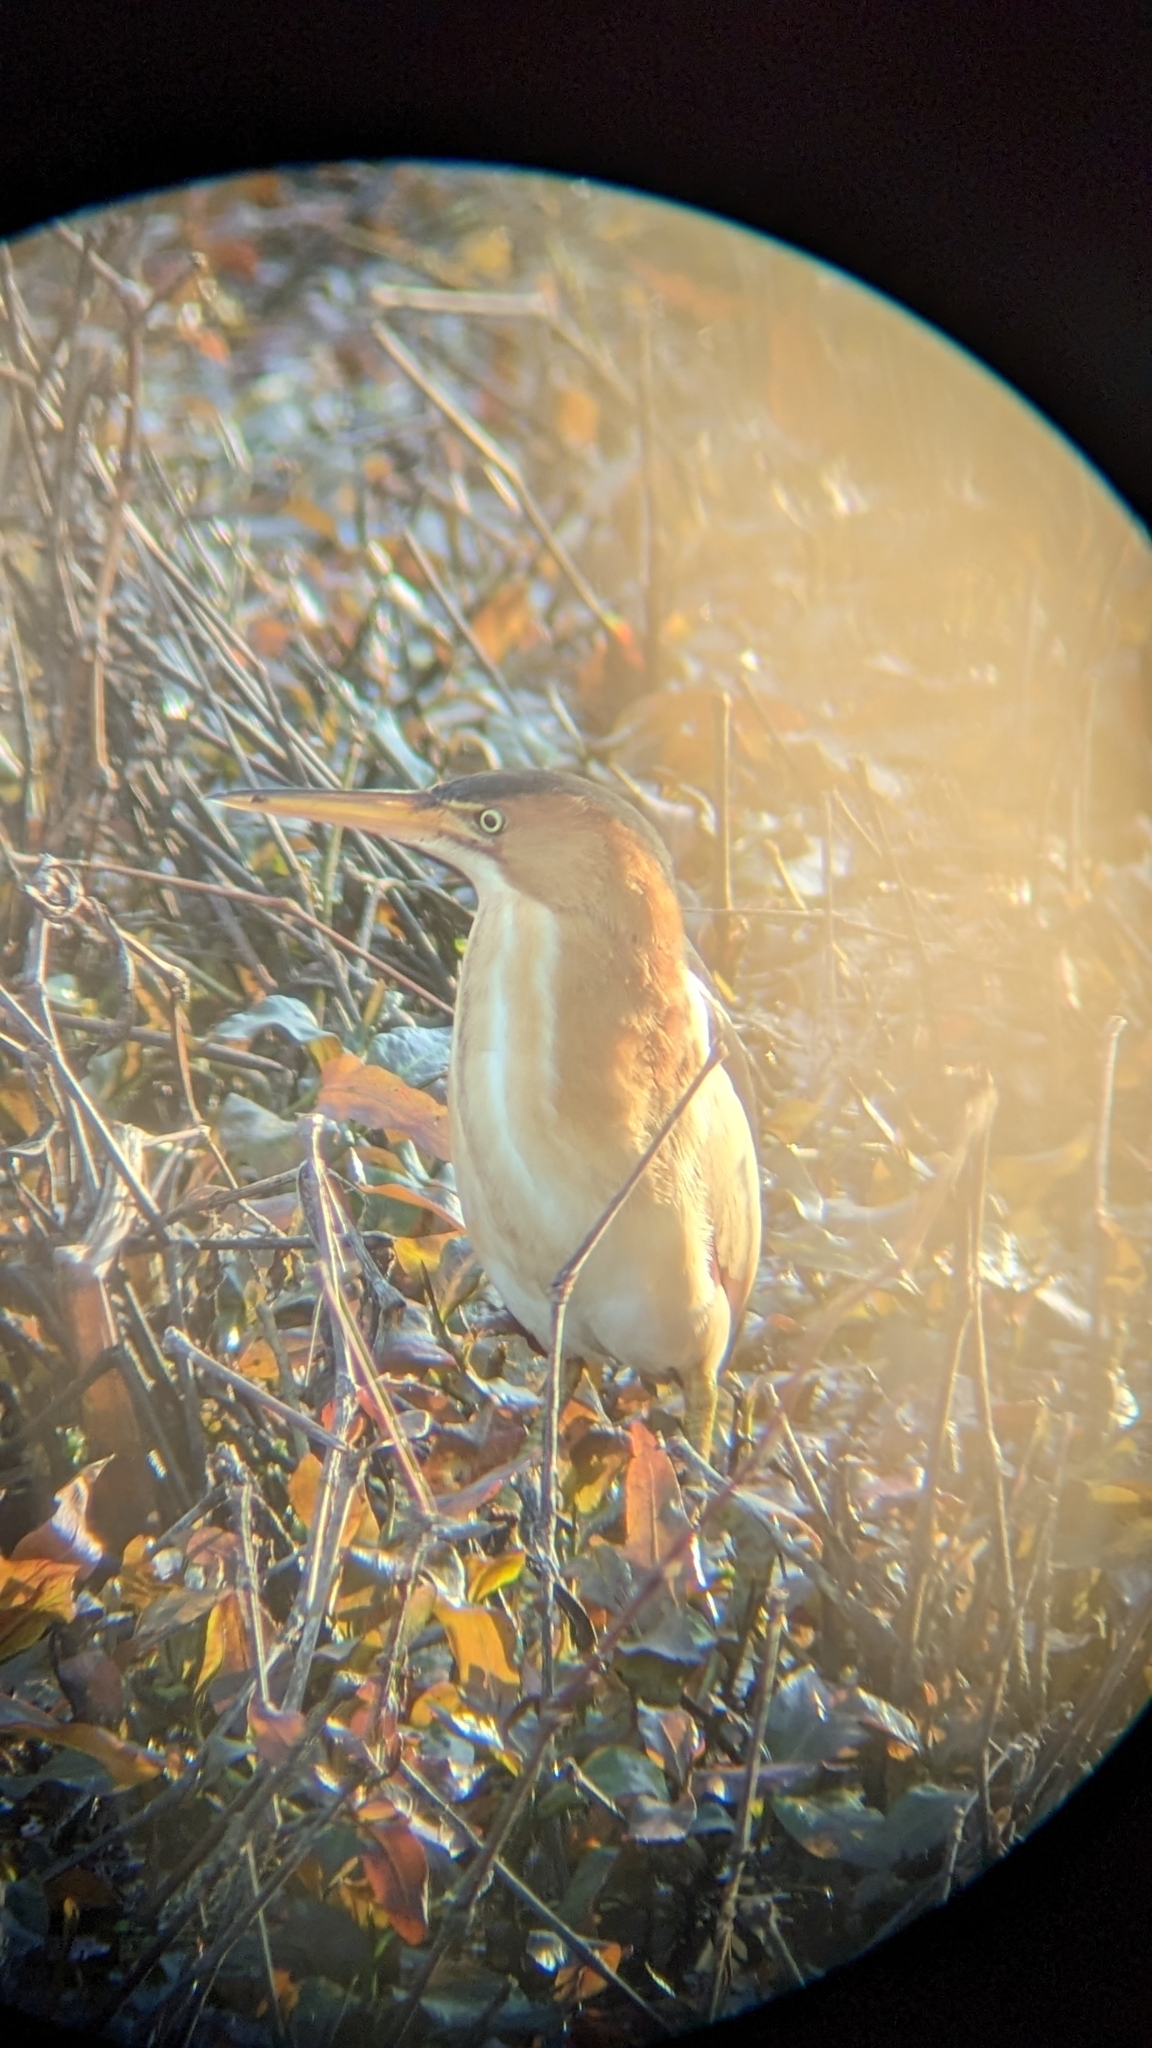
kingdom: Animalia
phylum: Chordata
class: Aves
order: Pelecaniformes
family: Ardeidae
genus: Ixobrychus
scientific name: Ixobrychus exilis
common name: Least bittern
